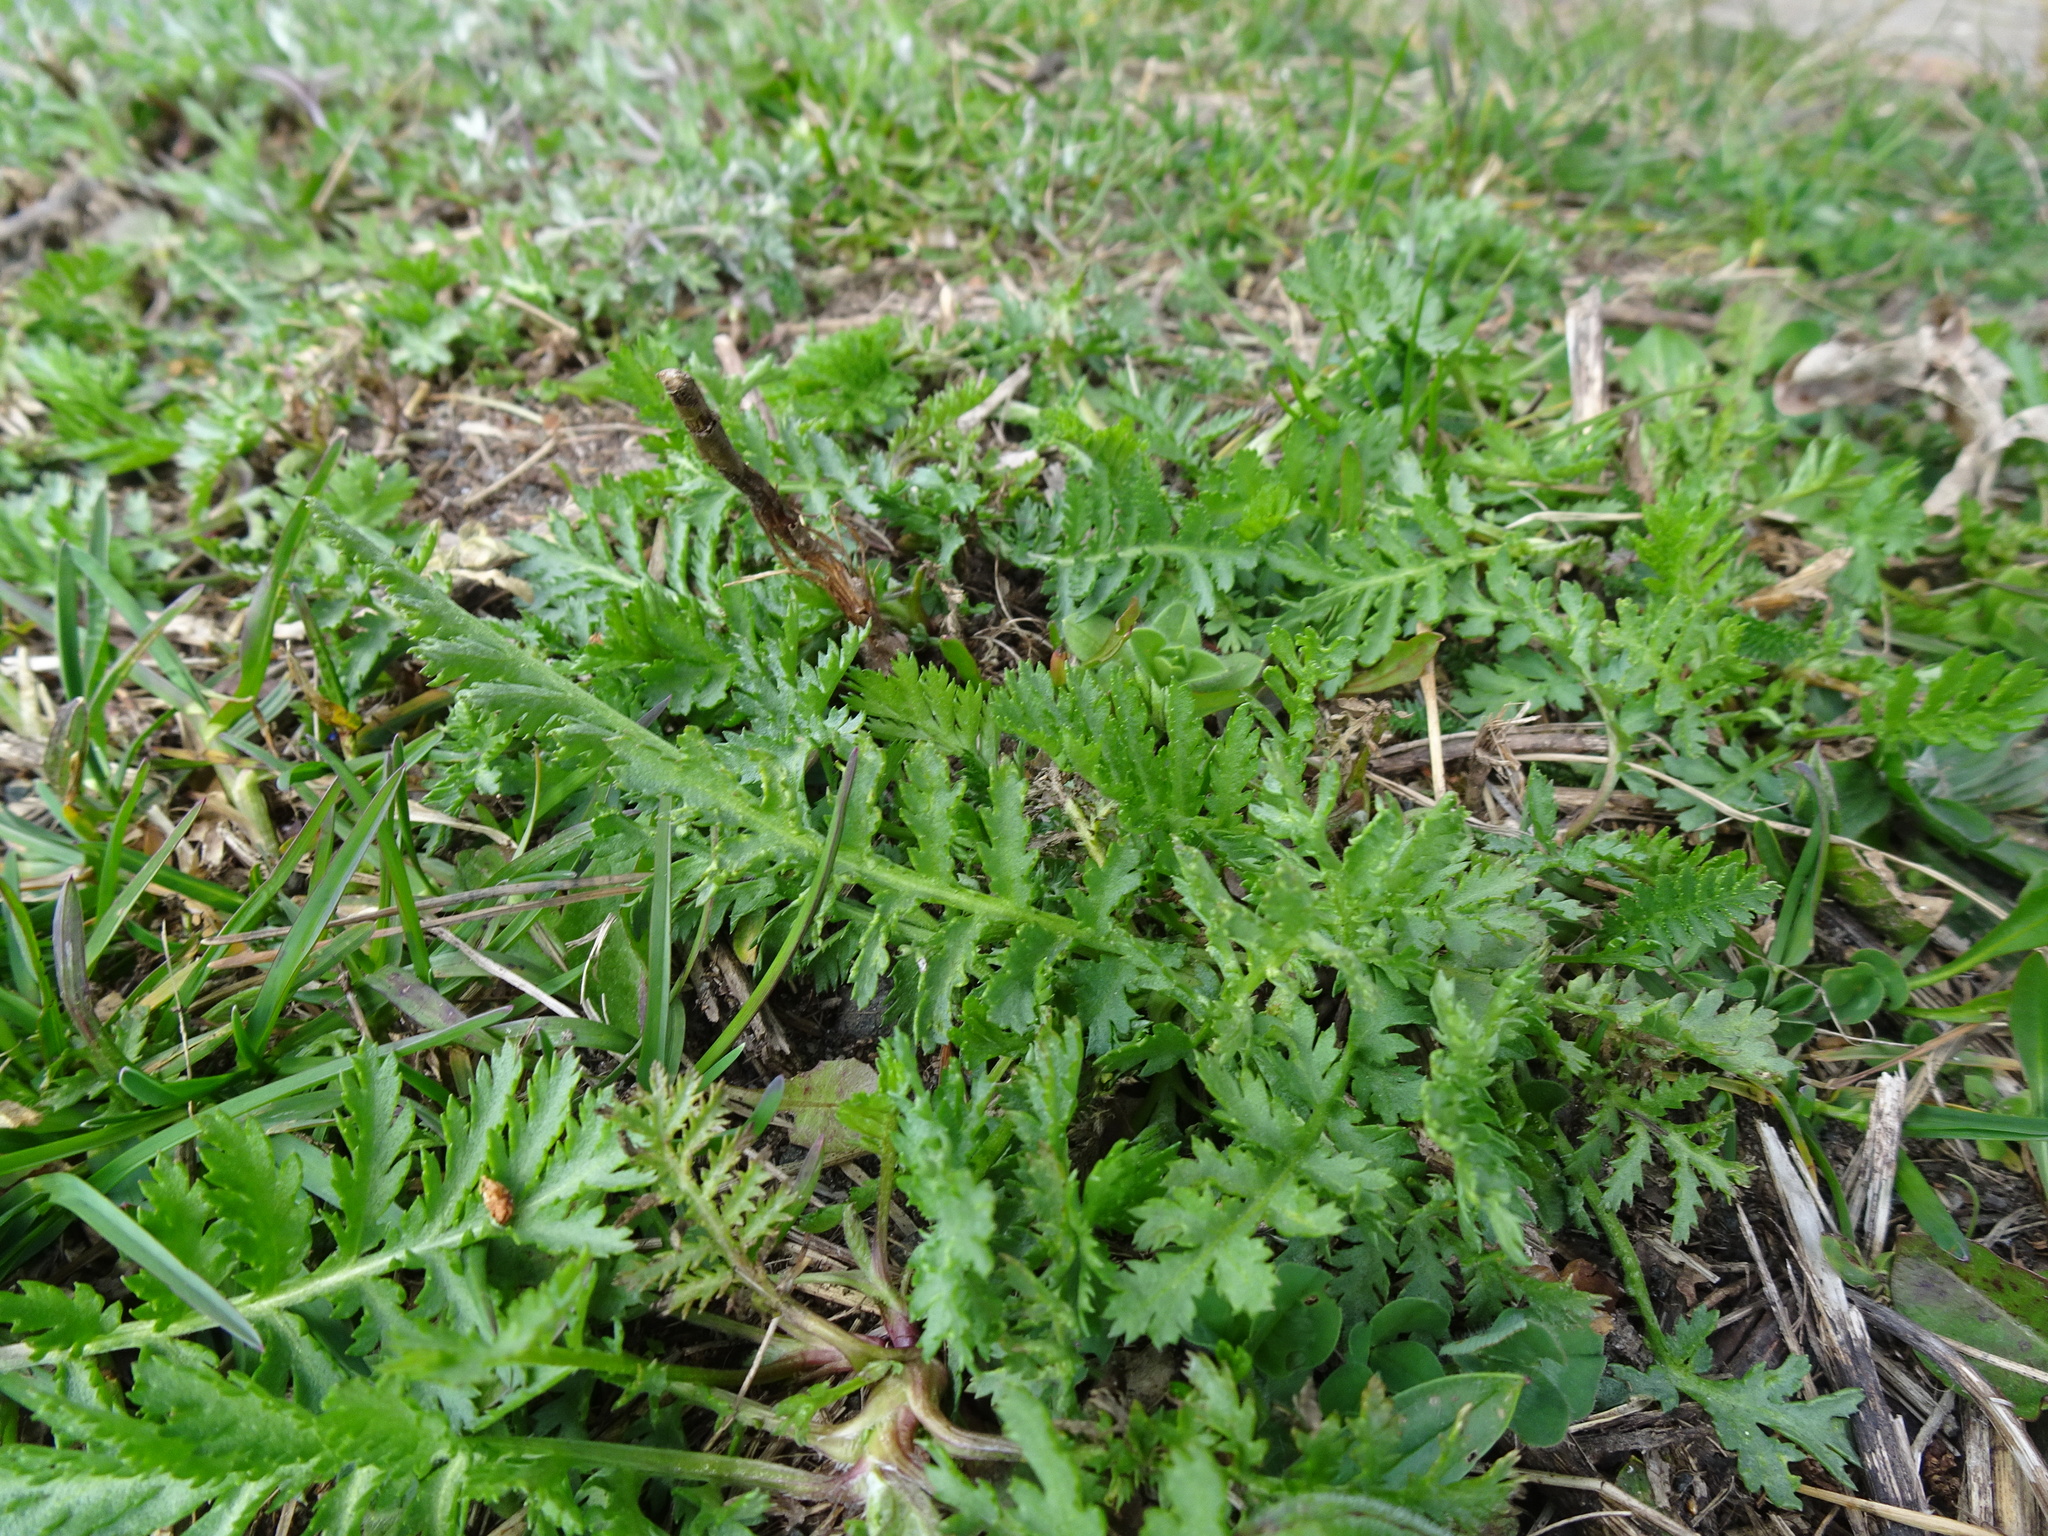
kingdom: Plantae
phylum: Tracheophyta
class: Magnoliopsida
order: Asterales
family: Asteraceae
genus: Tanacetum
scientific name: Tanacetum vulgare
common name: Common tansy
